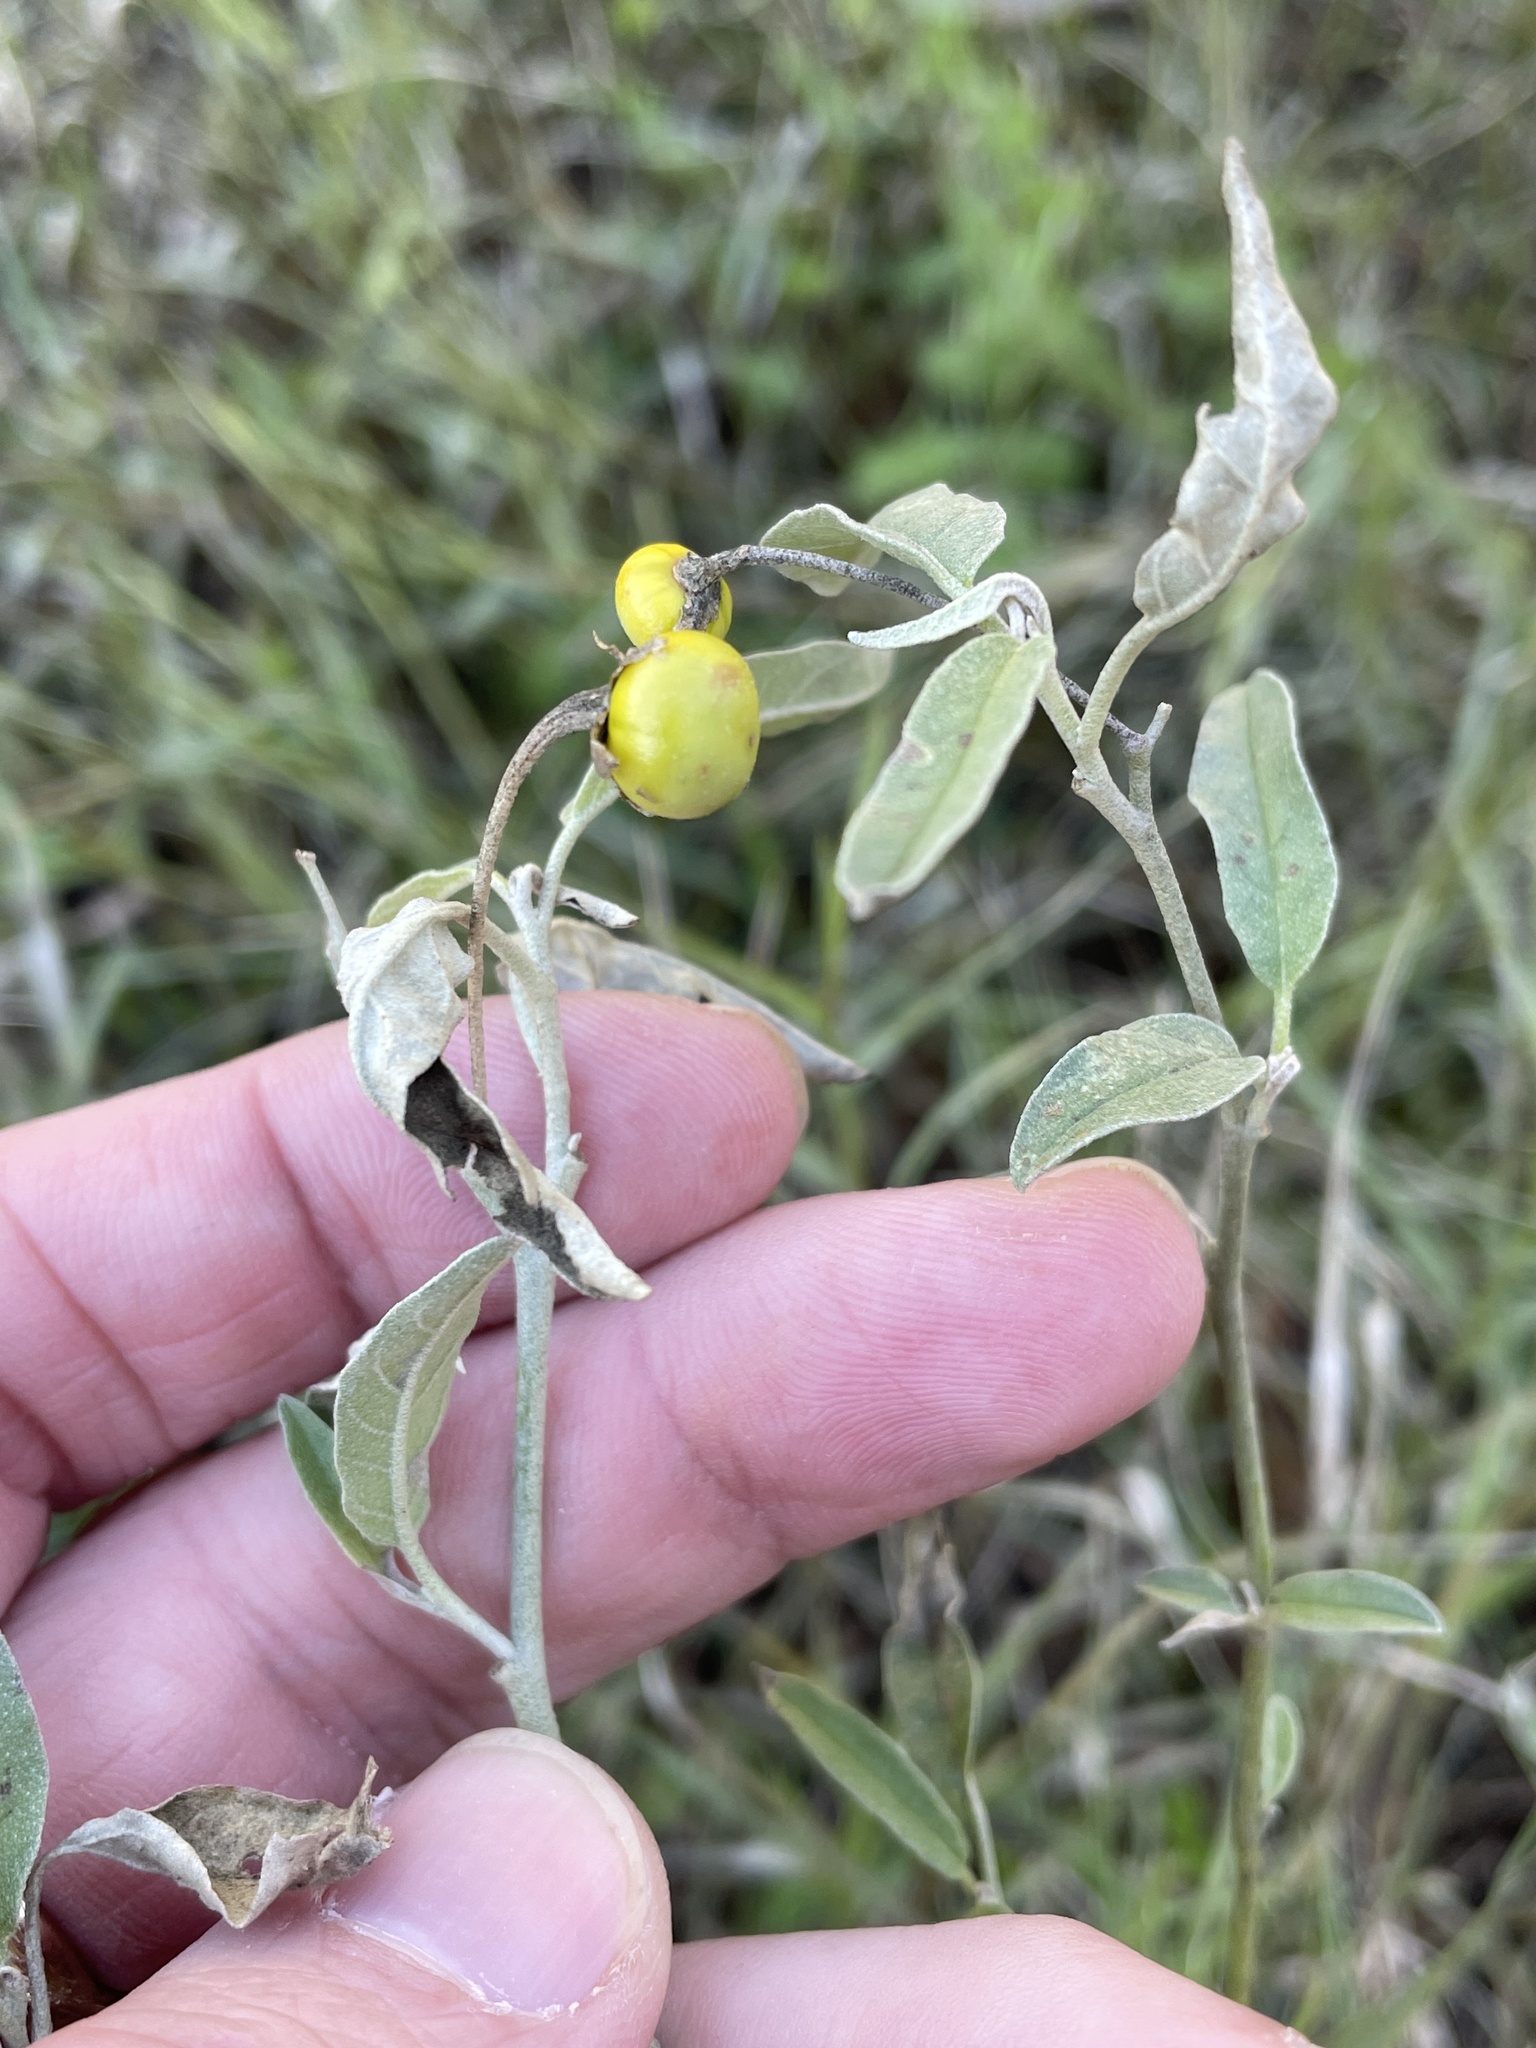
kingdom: Plantae
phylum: Tracheophyta
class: Magnoliopsida
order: Solanales
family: Solanaceae
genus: Solanum
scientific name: Solanum elaeagnifolium
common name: Silverleaf nightshade
